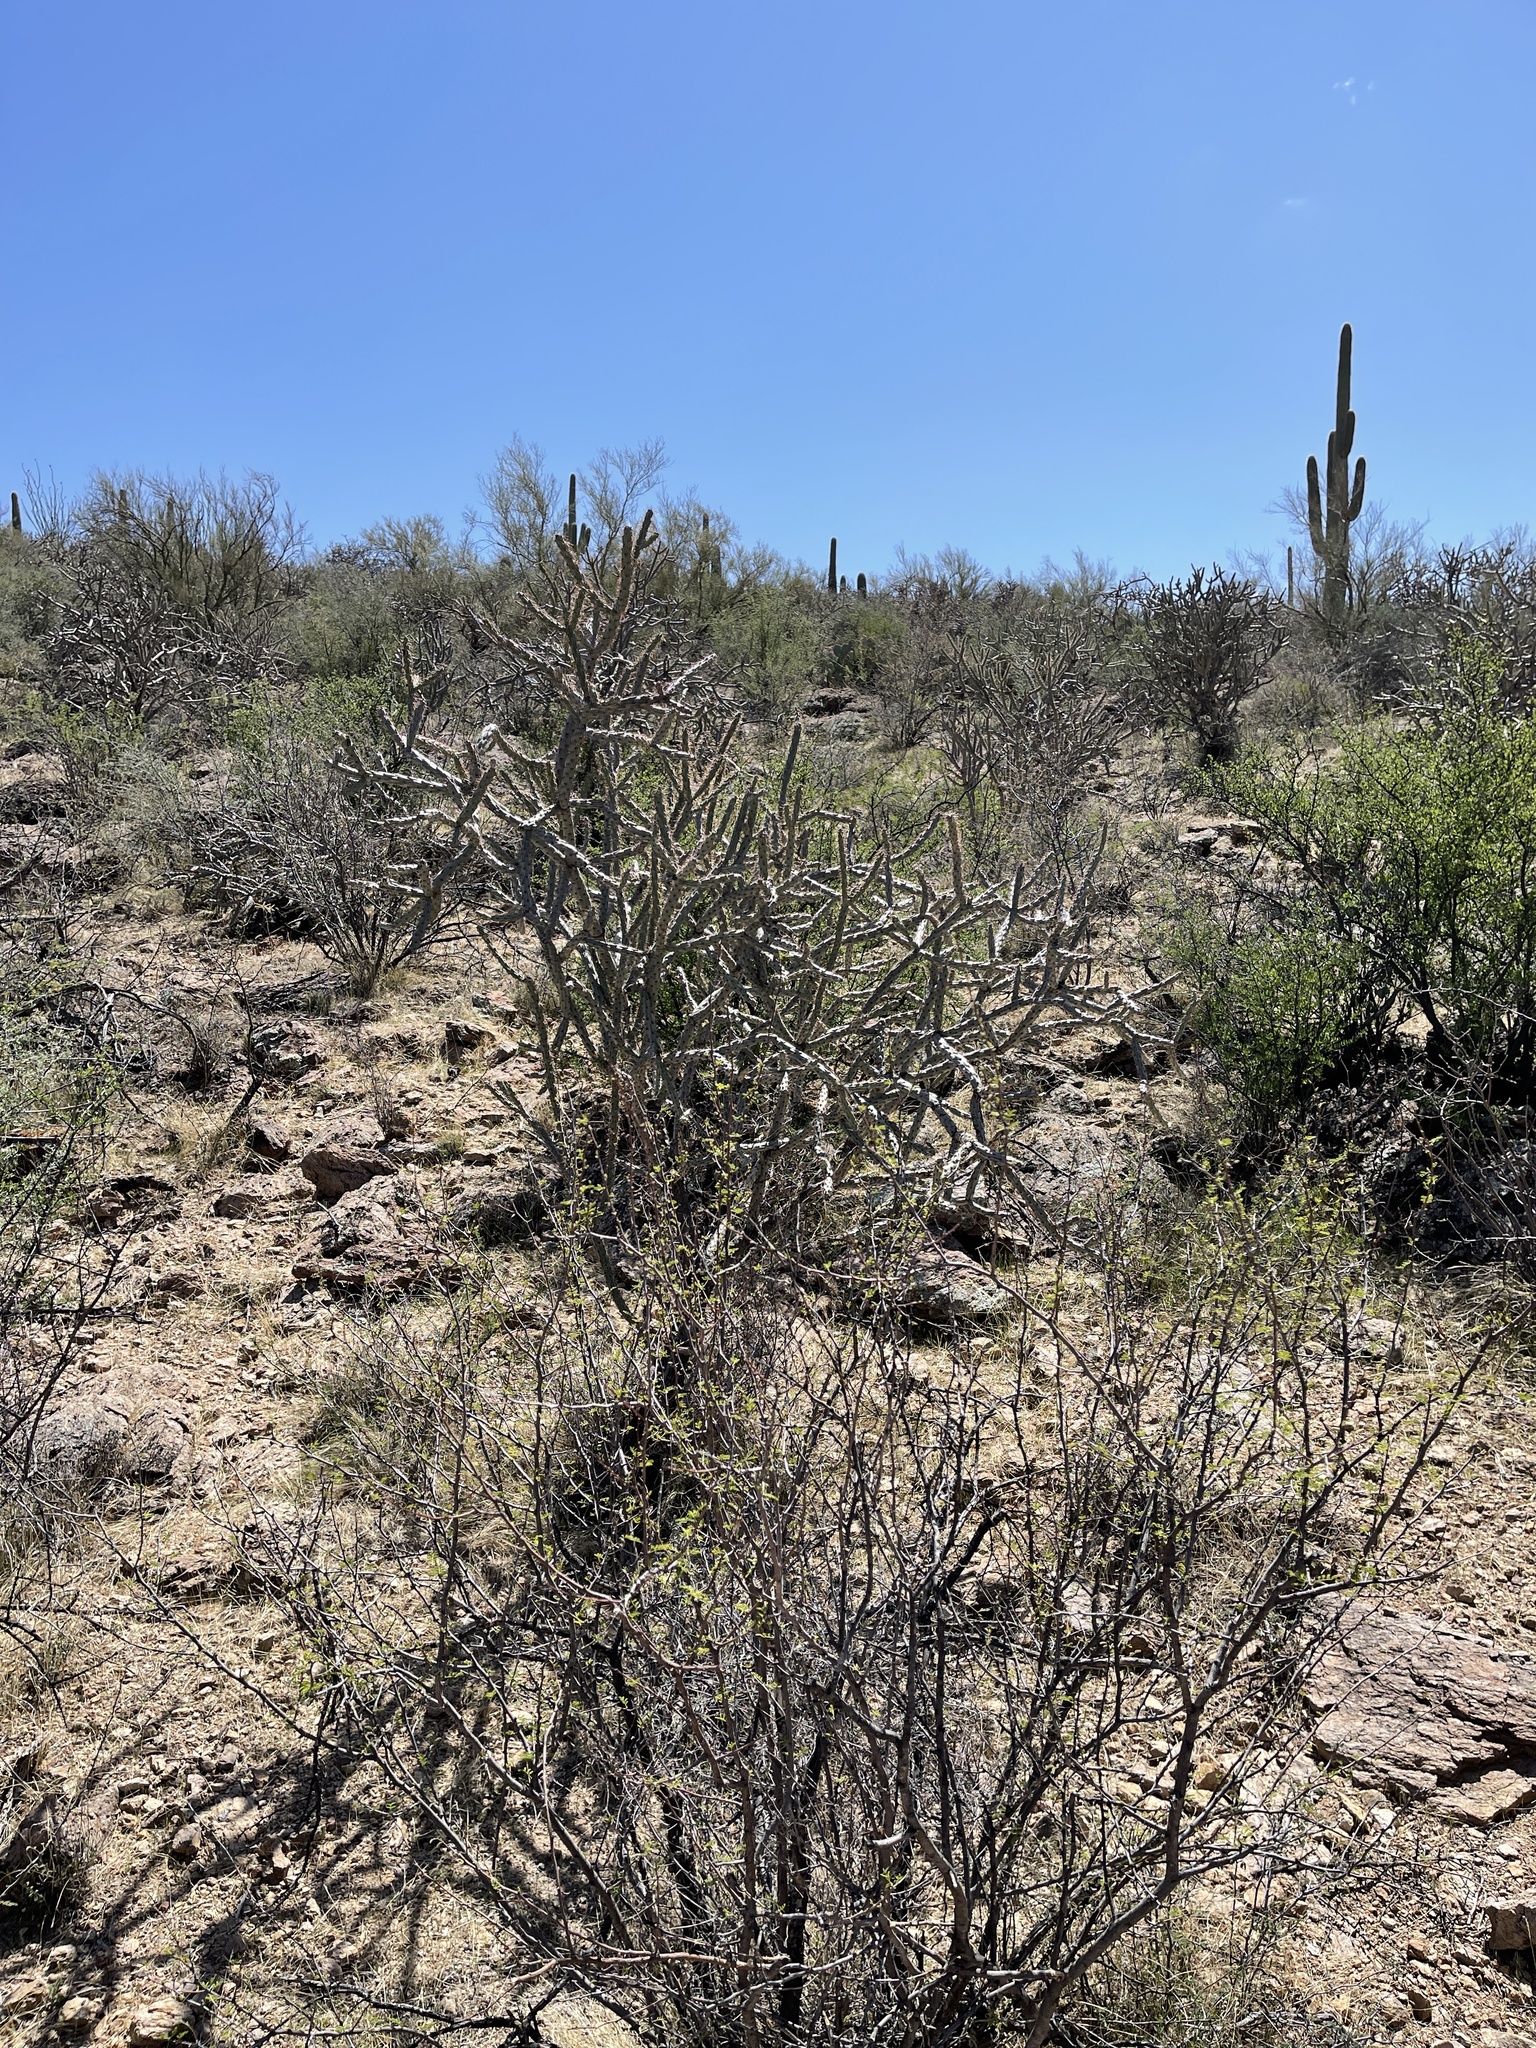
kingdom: Plantae
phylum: Tracheophyta
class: Magnoliopsida
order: Caryophyllales
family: Cactaceae
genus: Cylindropuntia
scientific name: Cylindropuntia acanthocarpa
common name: Buckhorn cholla
